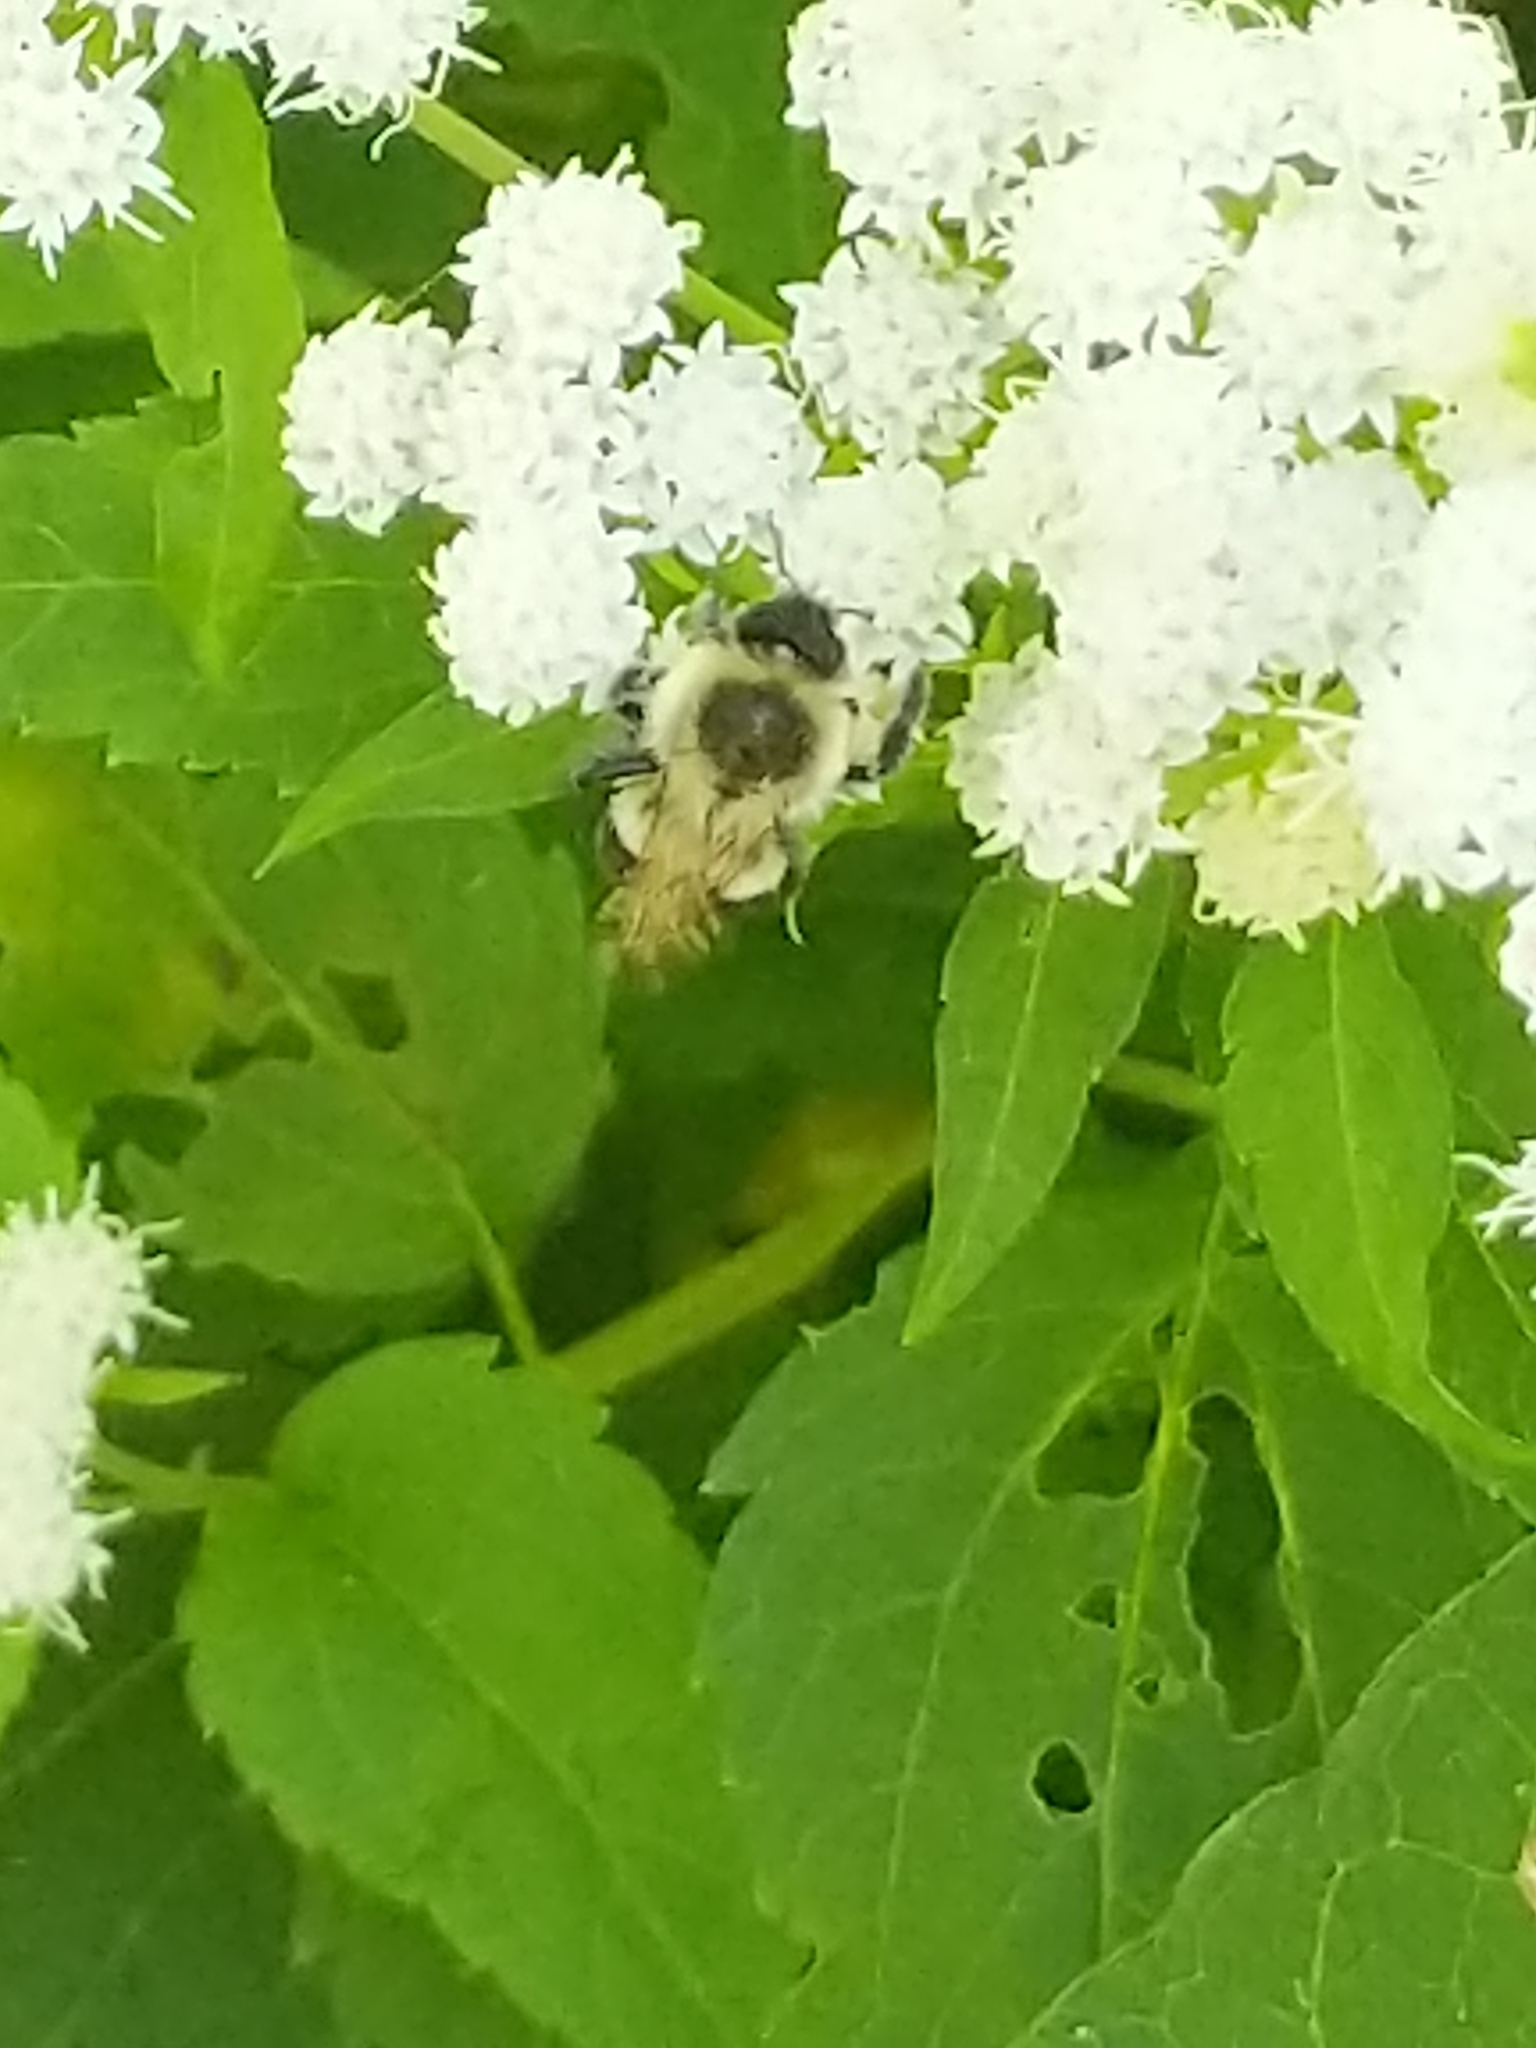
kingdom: Animalia
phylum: Arthropoda
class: Insecta
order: Hymenoptera
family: Apidae
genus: Bombus
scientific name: Bombus impatiens
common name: Common eastern bumble bee
